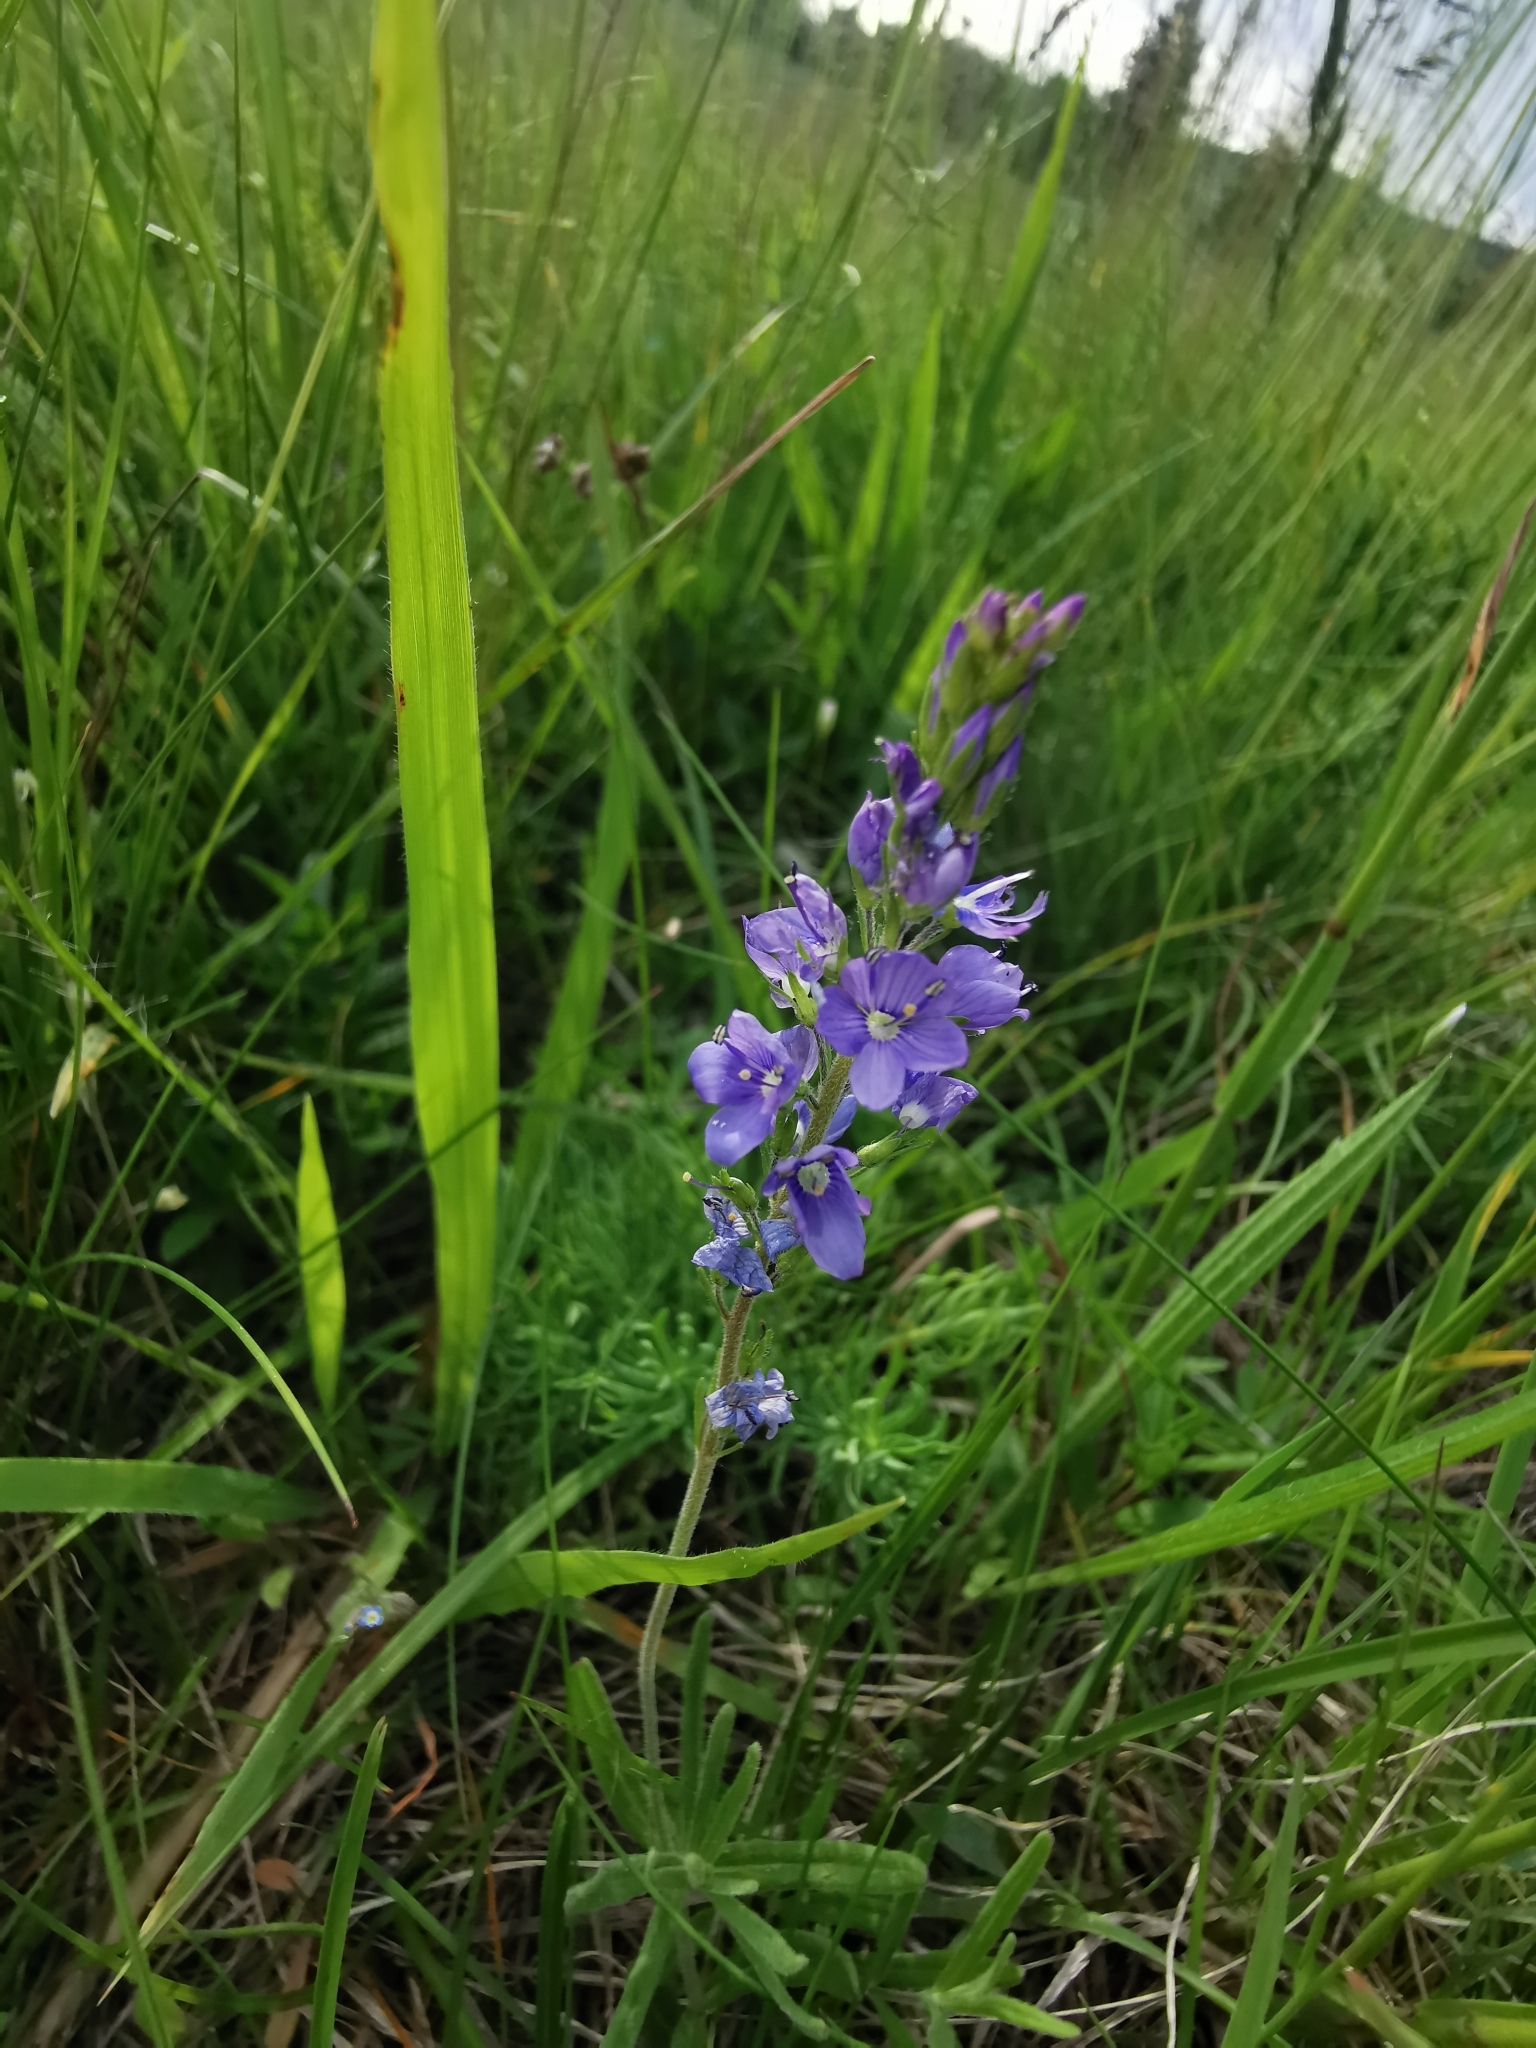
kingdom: Plantae
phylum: Tracheophyta
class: Magnoliopsida
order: Lamiales
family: Plantaginaceae
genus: Veronica
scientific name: Veronica prostrata
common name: Prostrate speedwell
